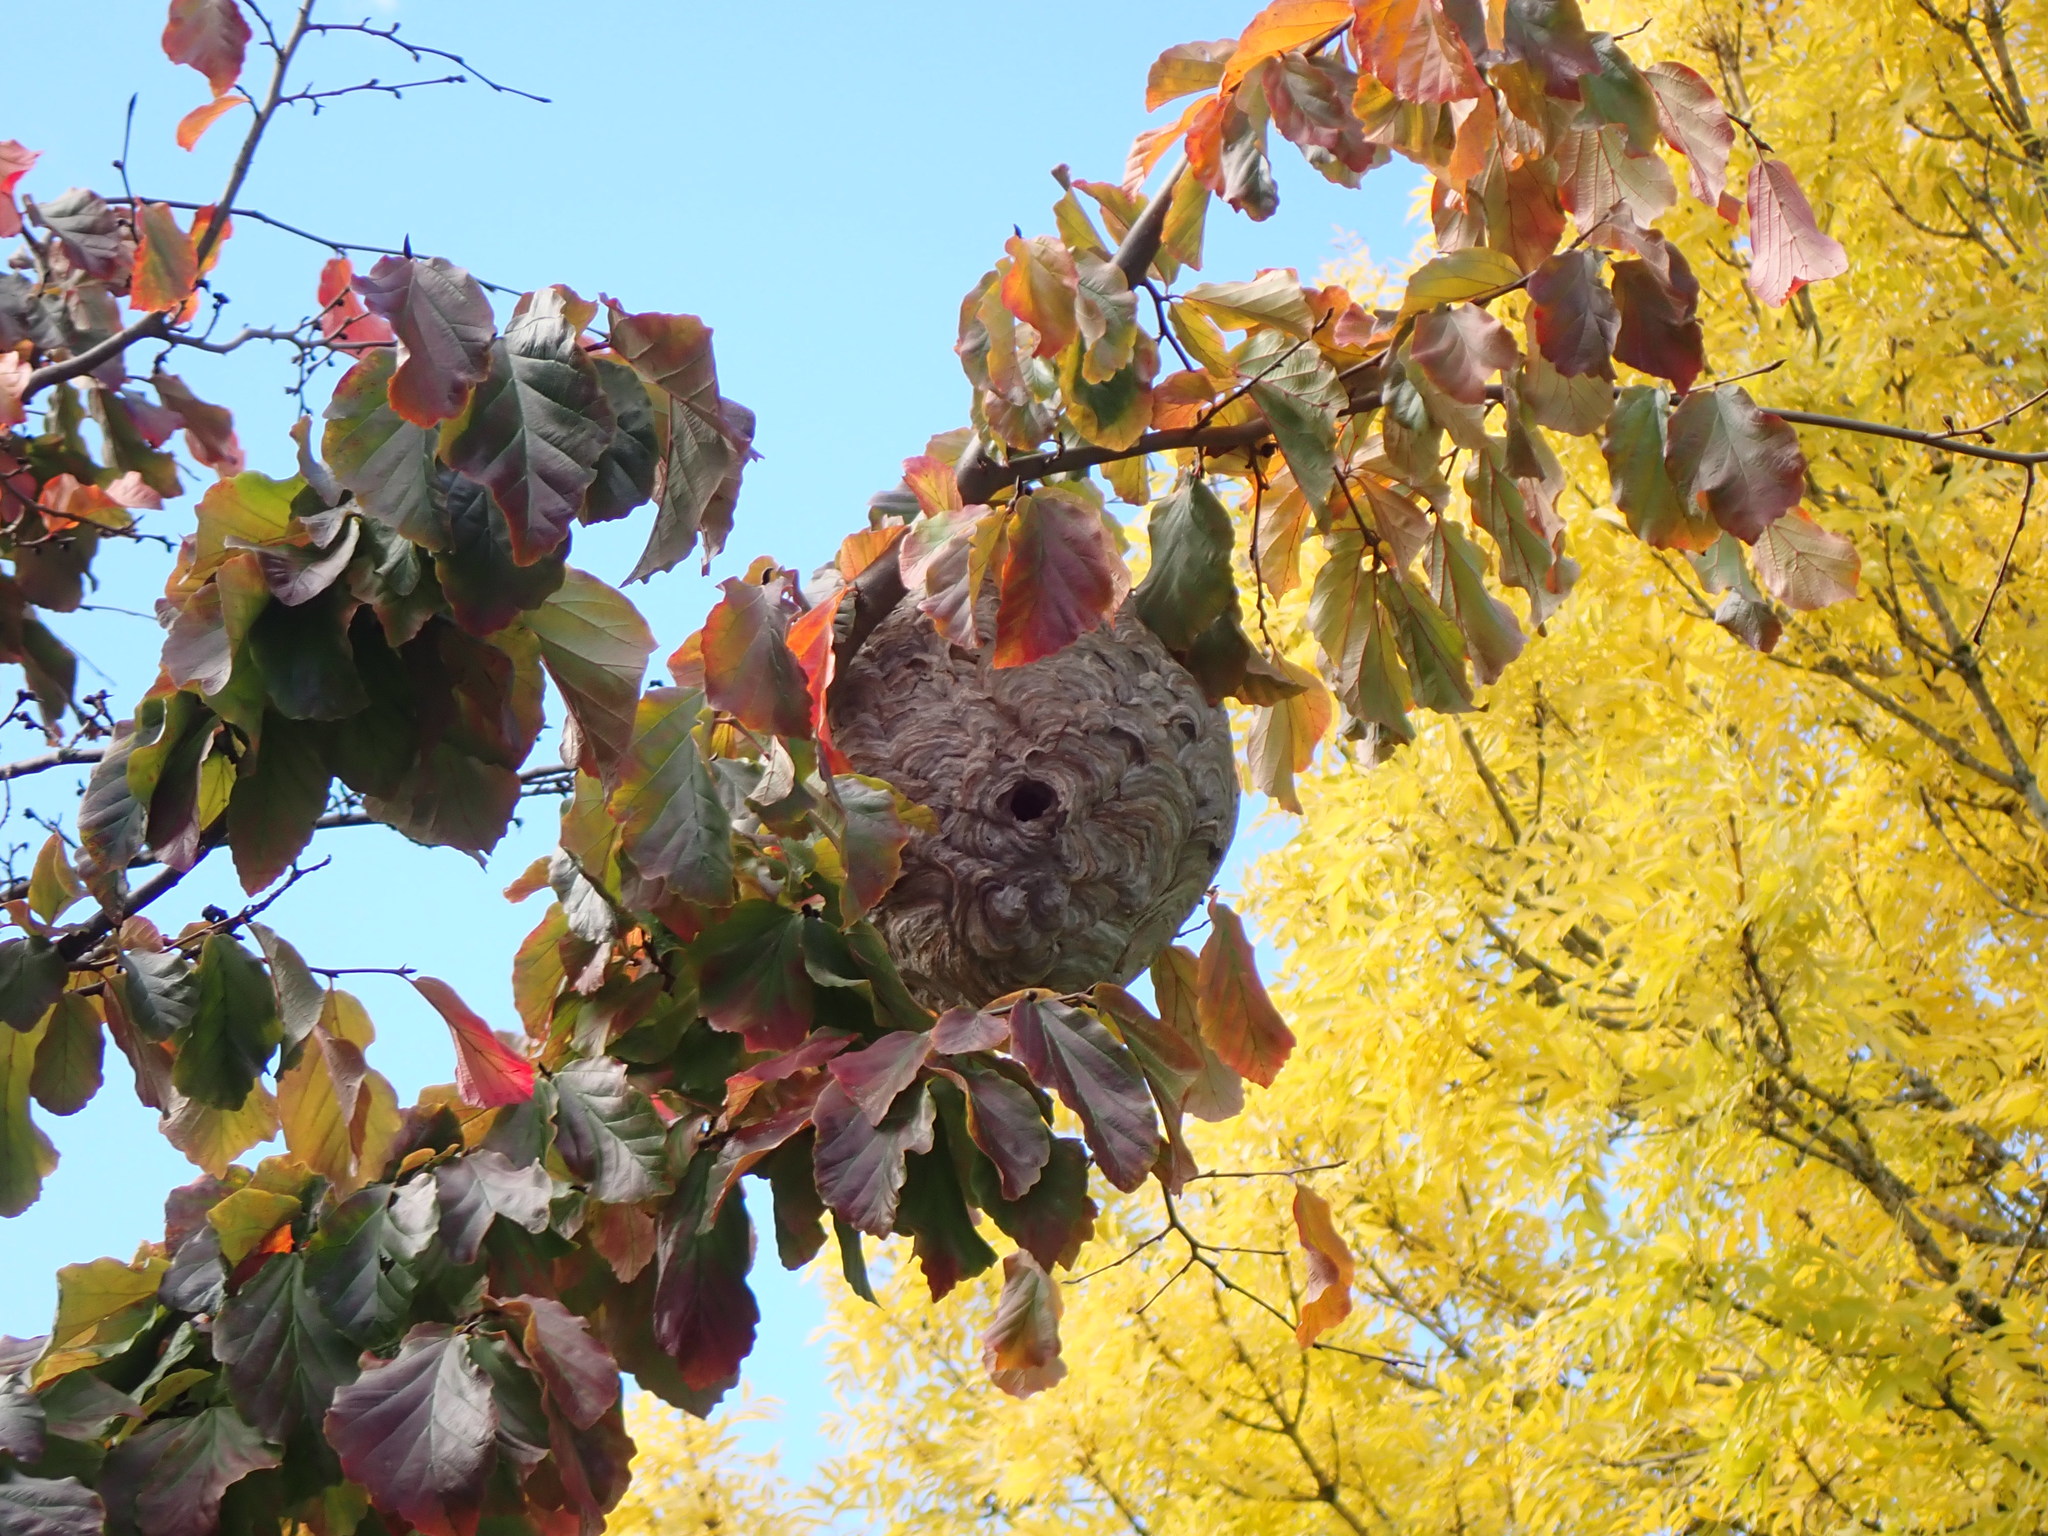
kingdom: Animalia
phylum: Arthropoda
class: Insecta
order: Hymenoptera
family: Vespidae
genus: Dolichovespula
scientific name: Dolichovespula maculata
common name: Bald-faced hornet
